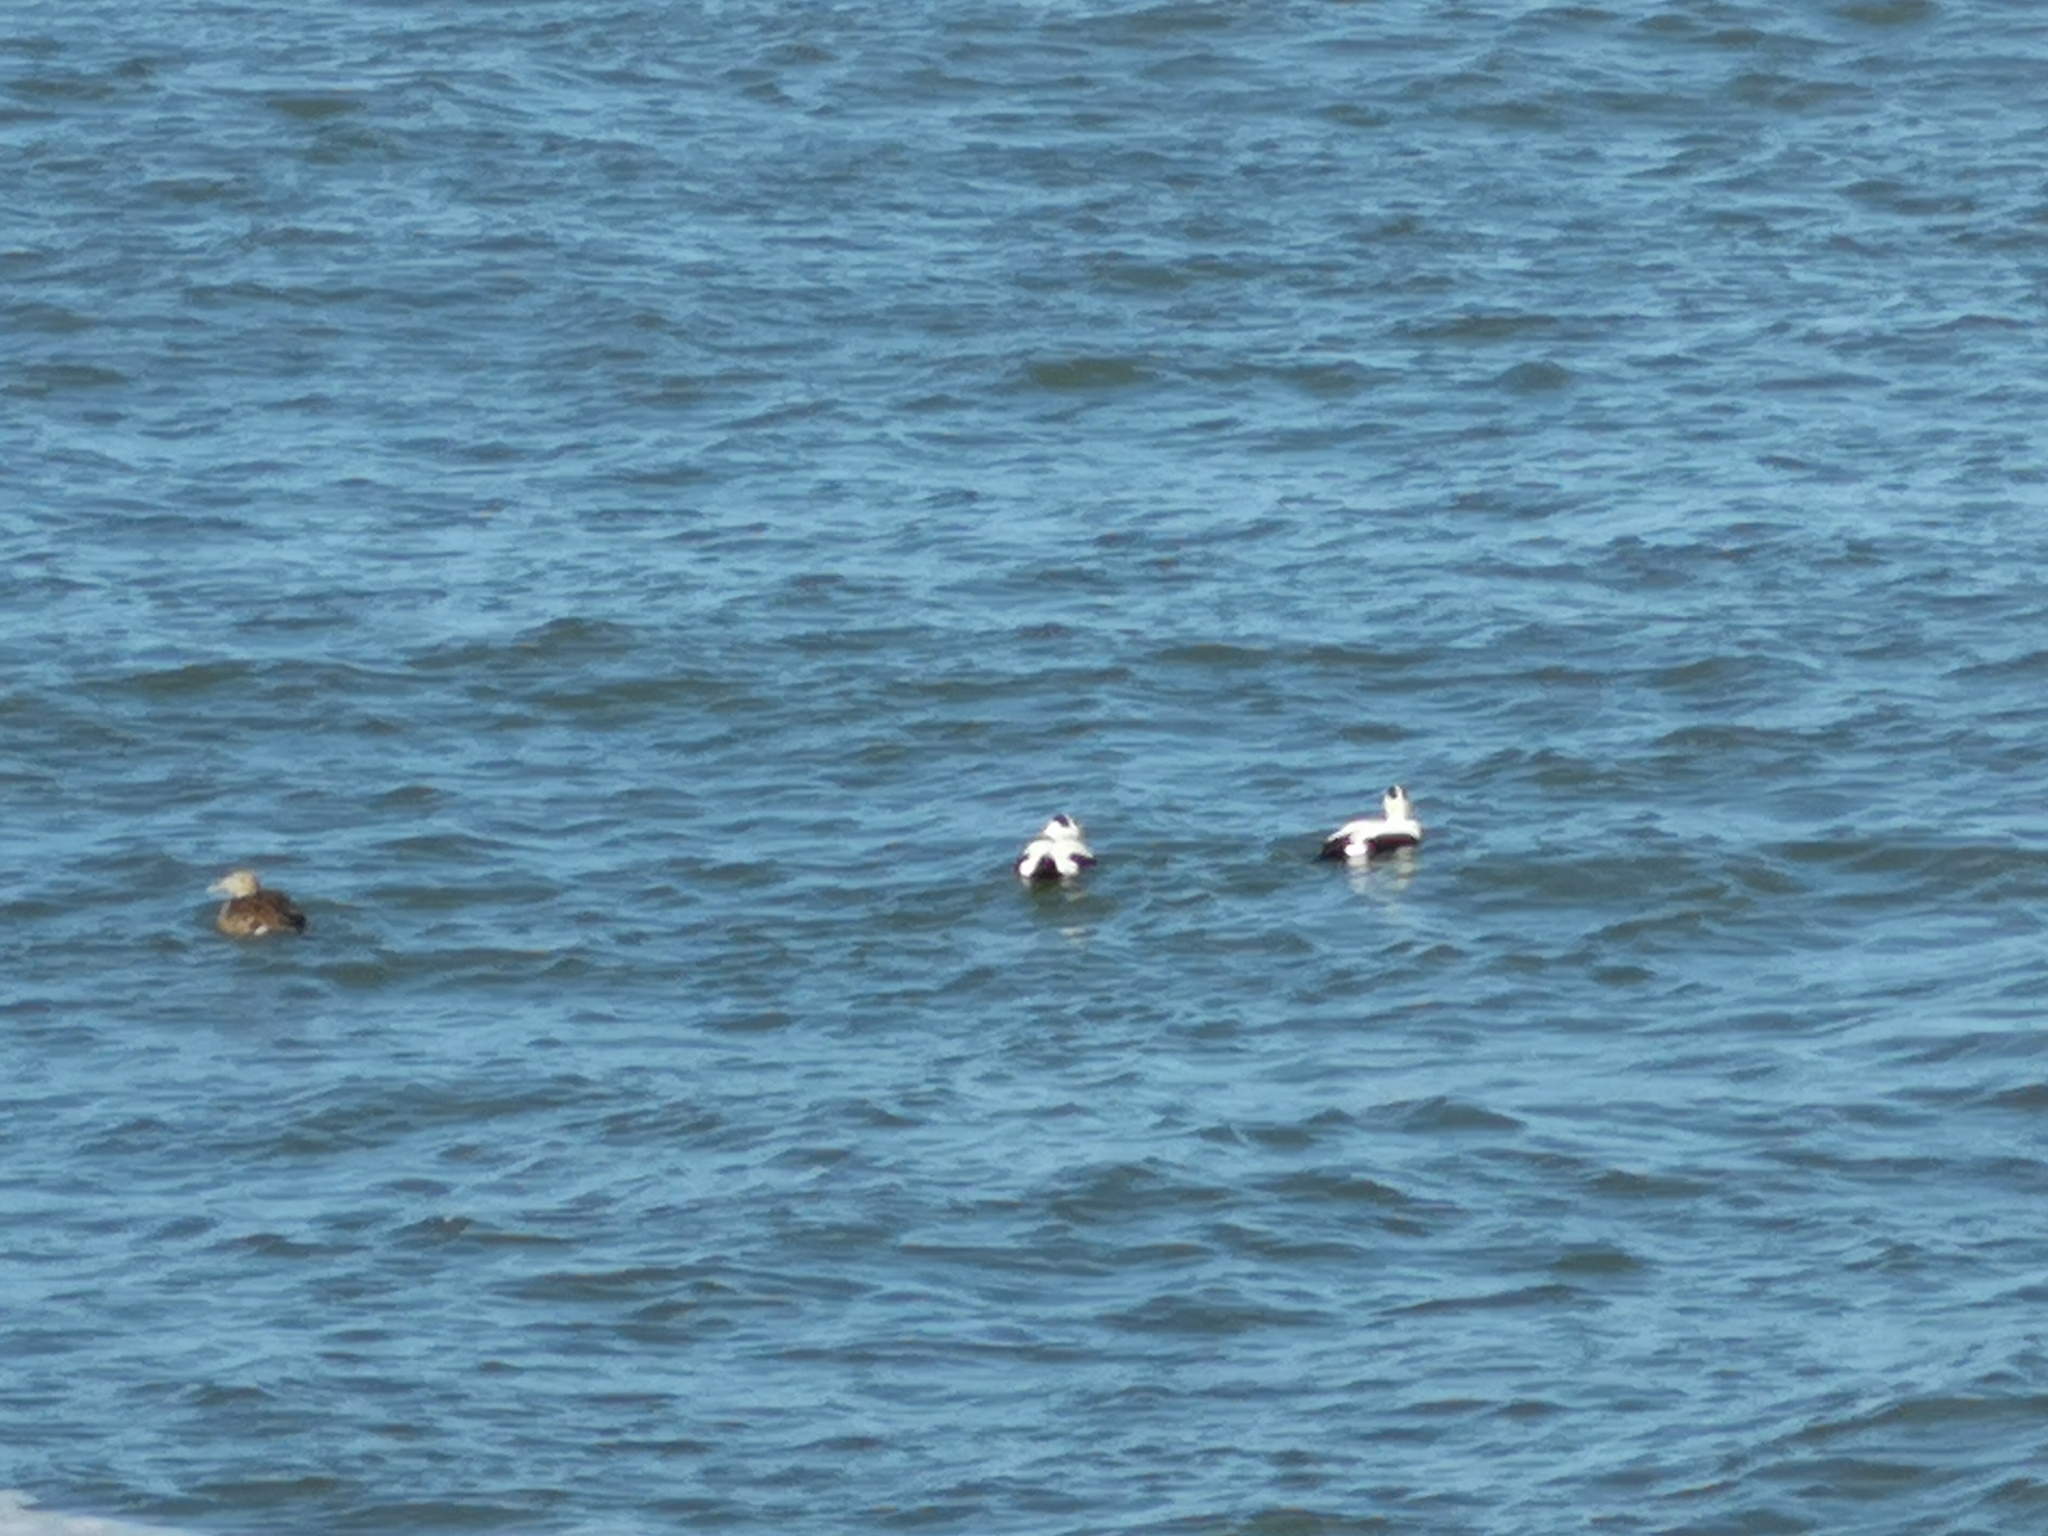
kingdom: Animalia
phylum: Chordata
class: Aves
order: Anseriformes
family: Anatidae
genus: Somateria
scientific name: Somateria mollissima
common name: Common eider
